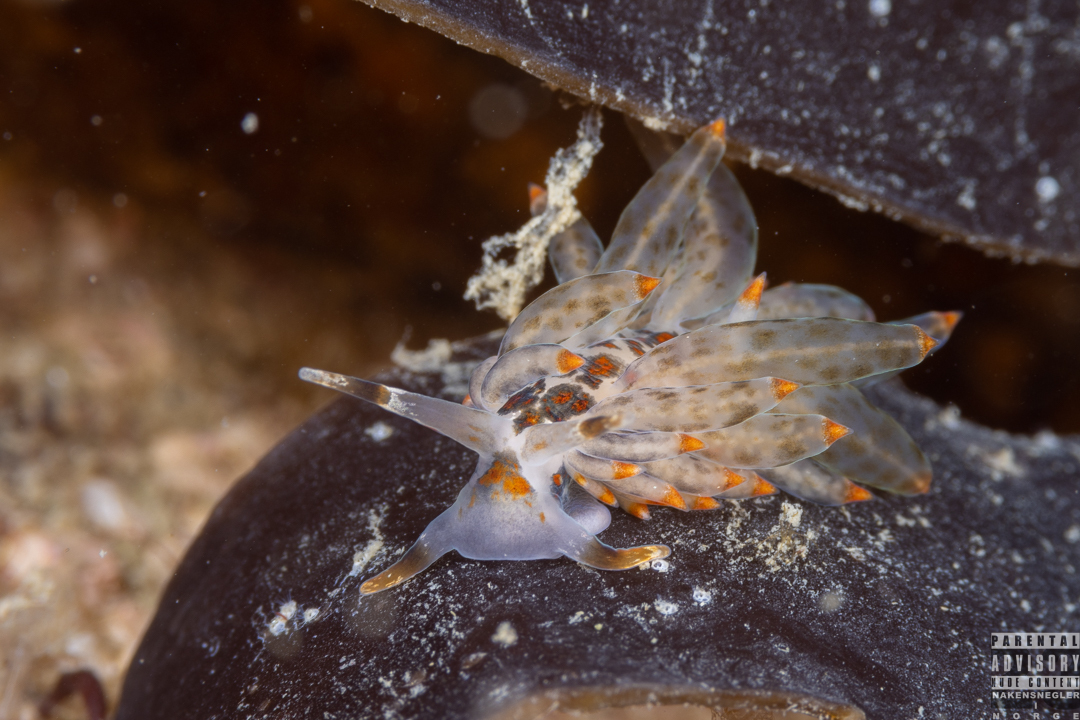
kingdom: Animalia
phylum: Mollusca
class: Gastropoda
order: Nudibranchia
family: Eubranchidae
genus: Amphorina
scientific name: Amphorina viriola
